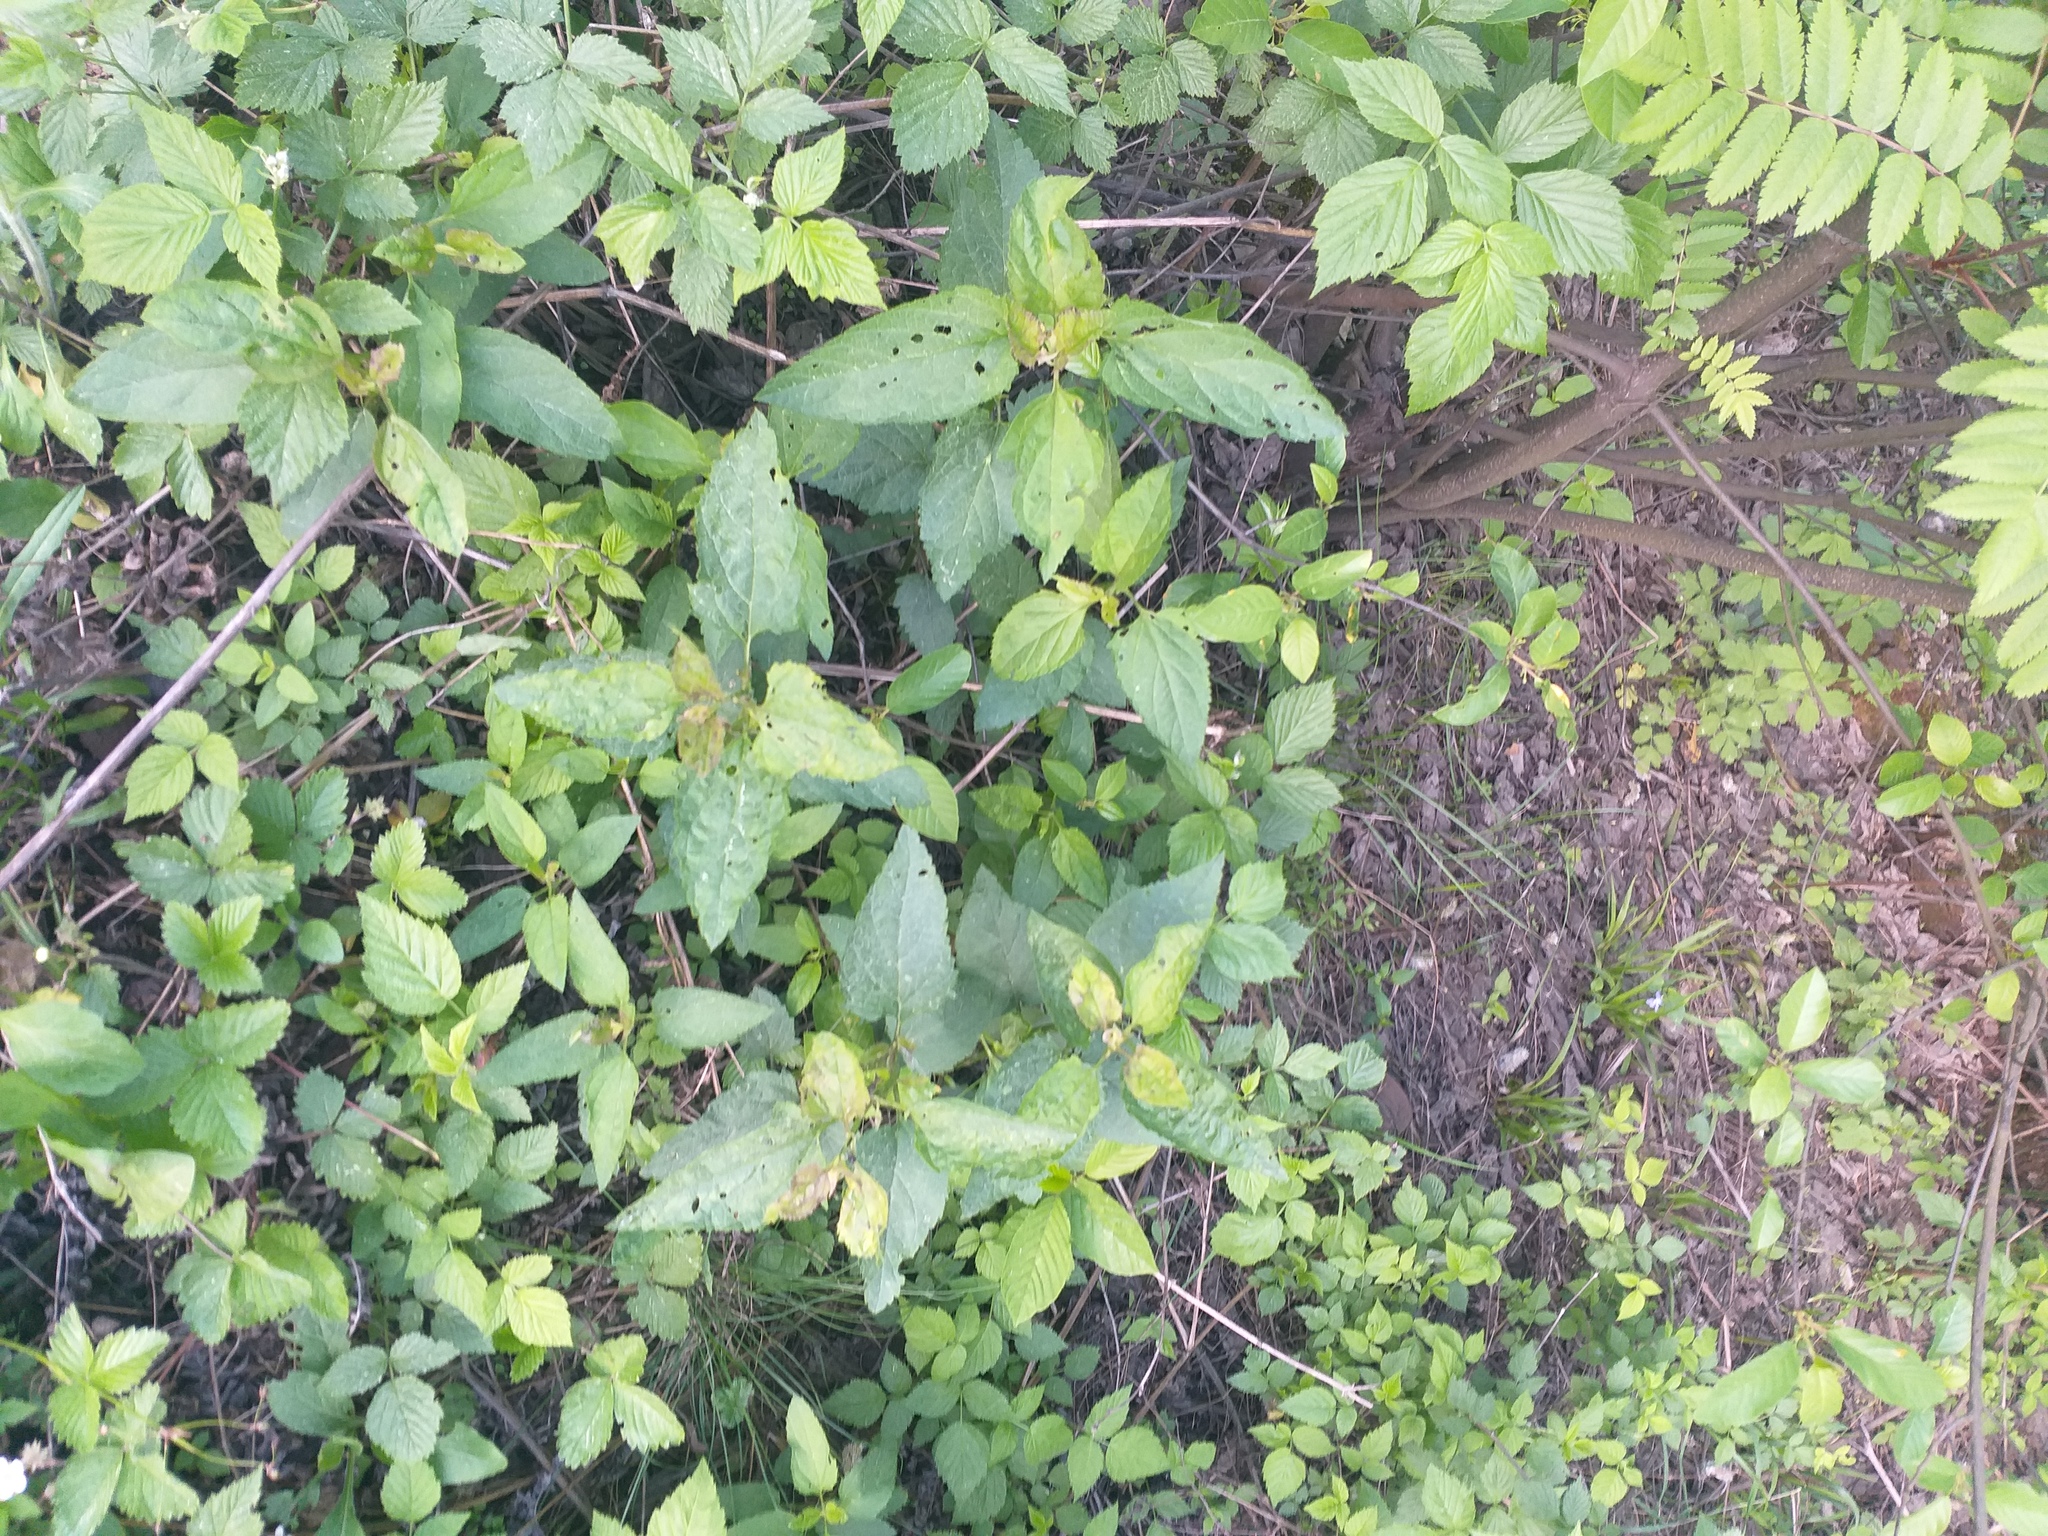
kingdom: Plantae
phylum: Tracheophyta
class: Magnoliopsida
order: Lamiales
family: Scrophulariaceae
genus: Scrophularia
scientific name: Scrophularia nodosa
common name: Common figwort
